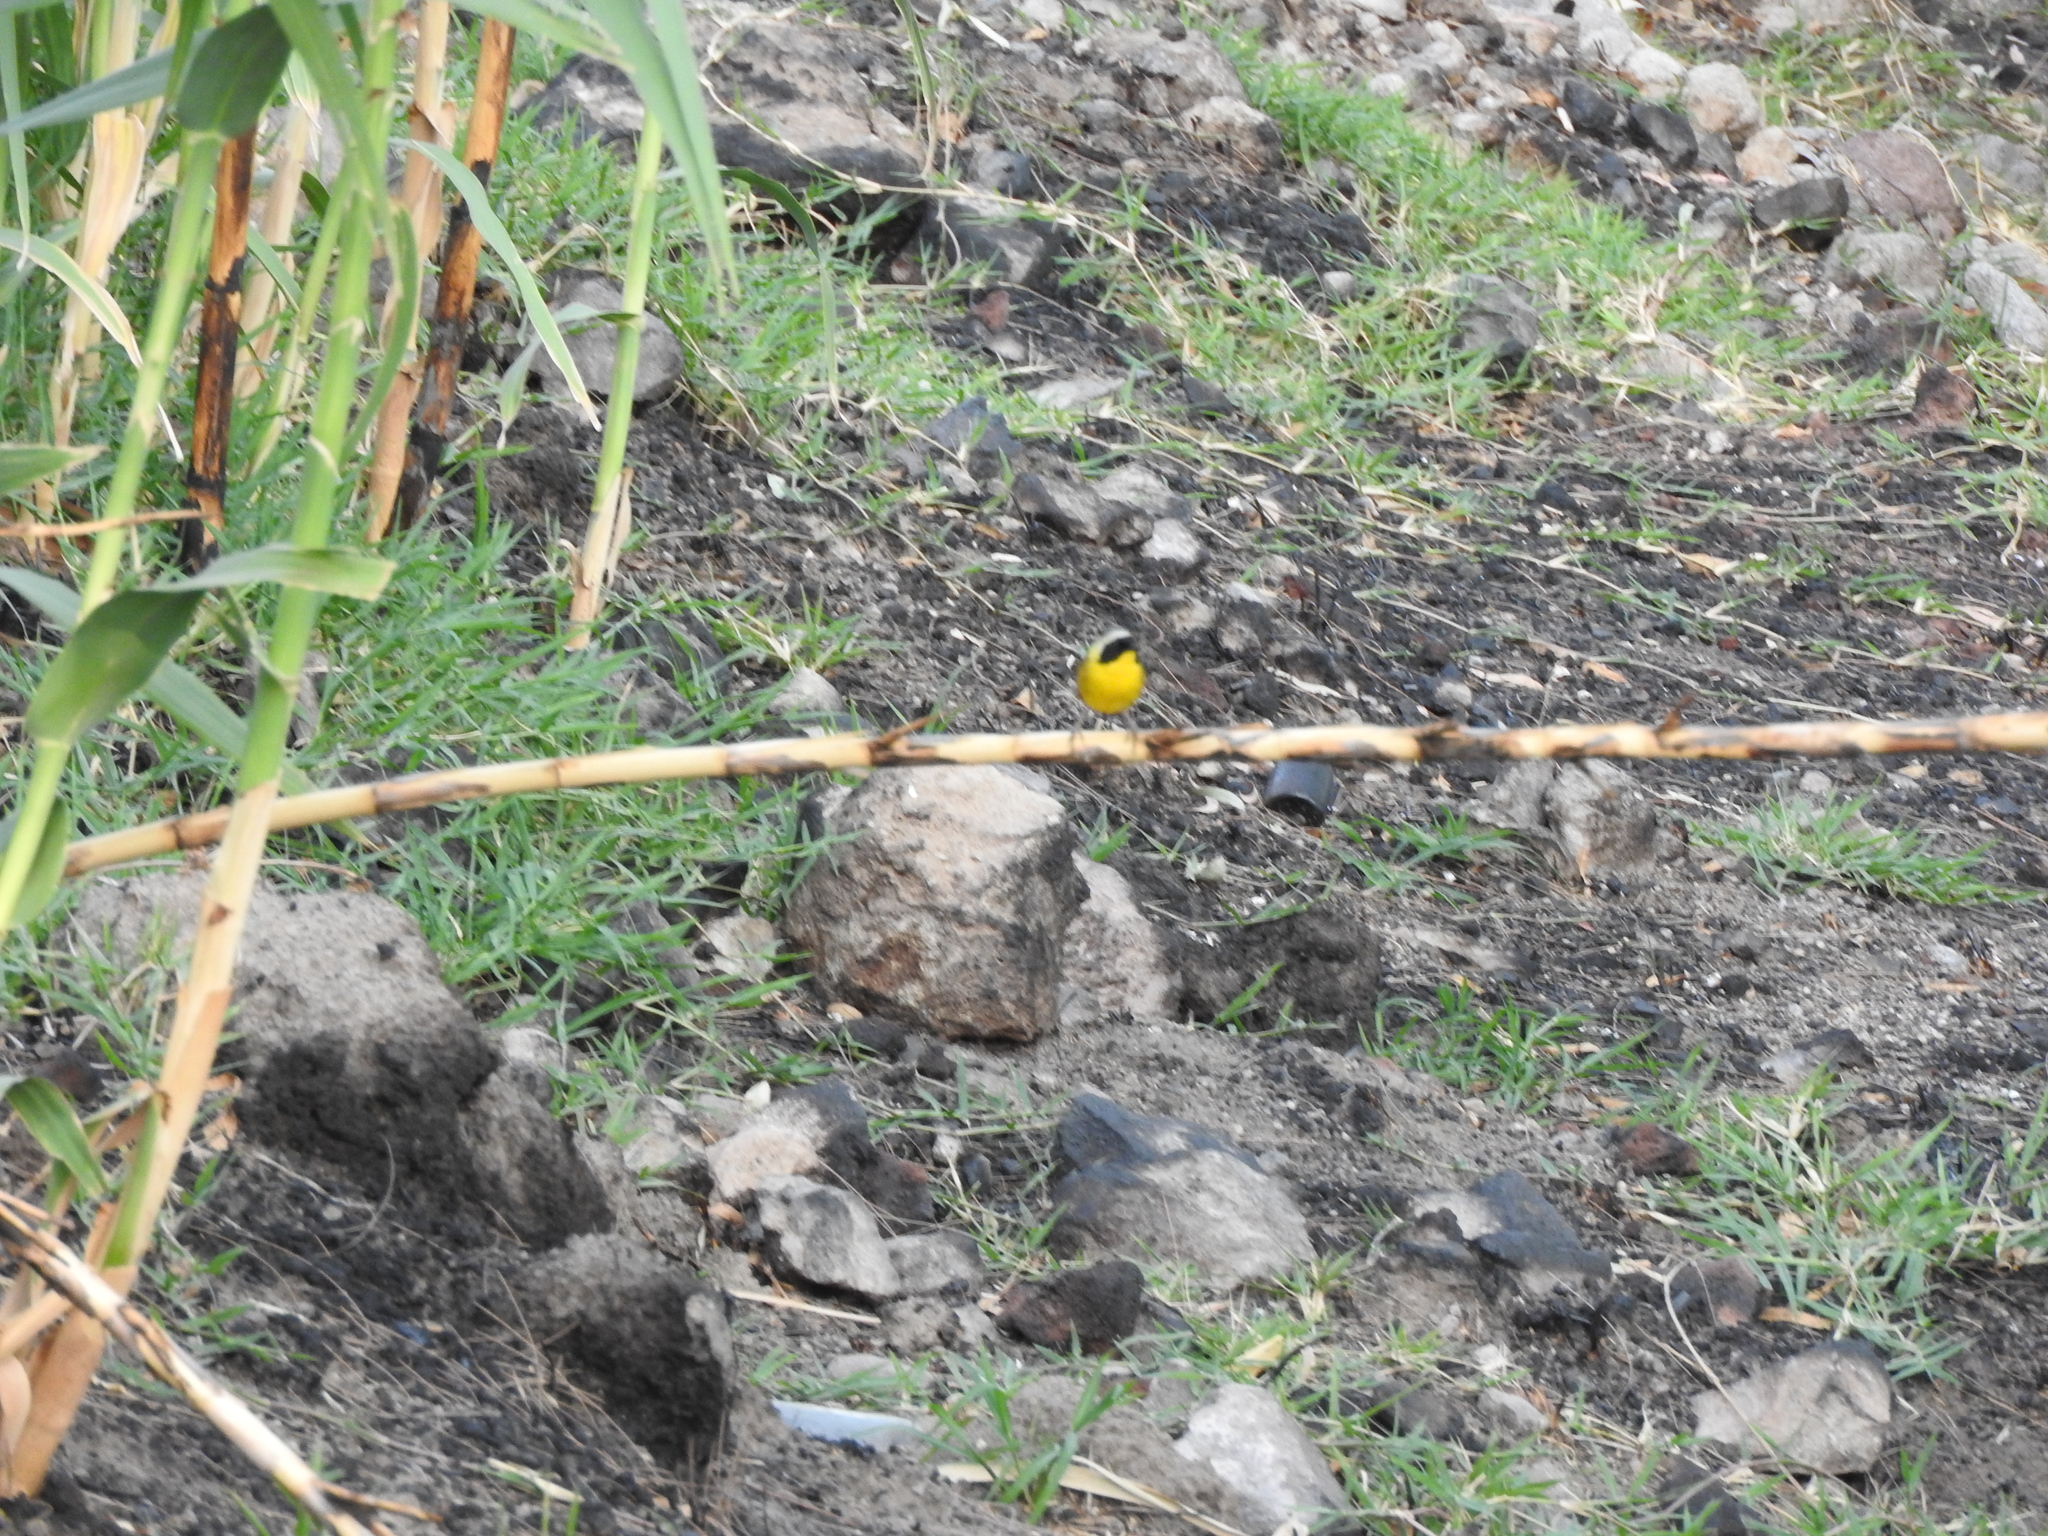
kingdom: Animalia
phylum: Chordata
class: Aves
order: Passeriformes
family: Parulidae
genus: Geothlypis
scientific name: Geothlypis trichas
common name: Common yellowthroat
